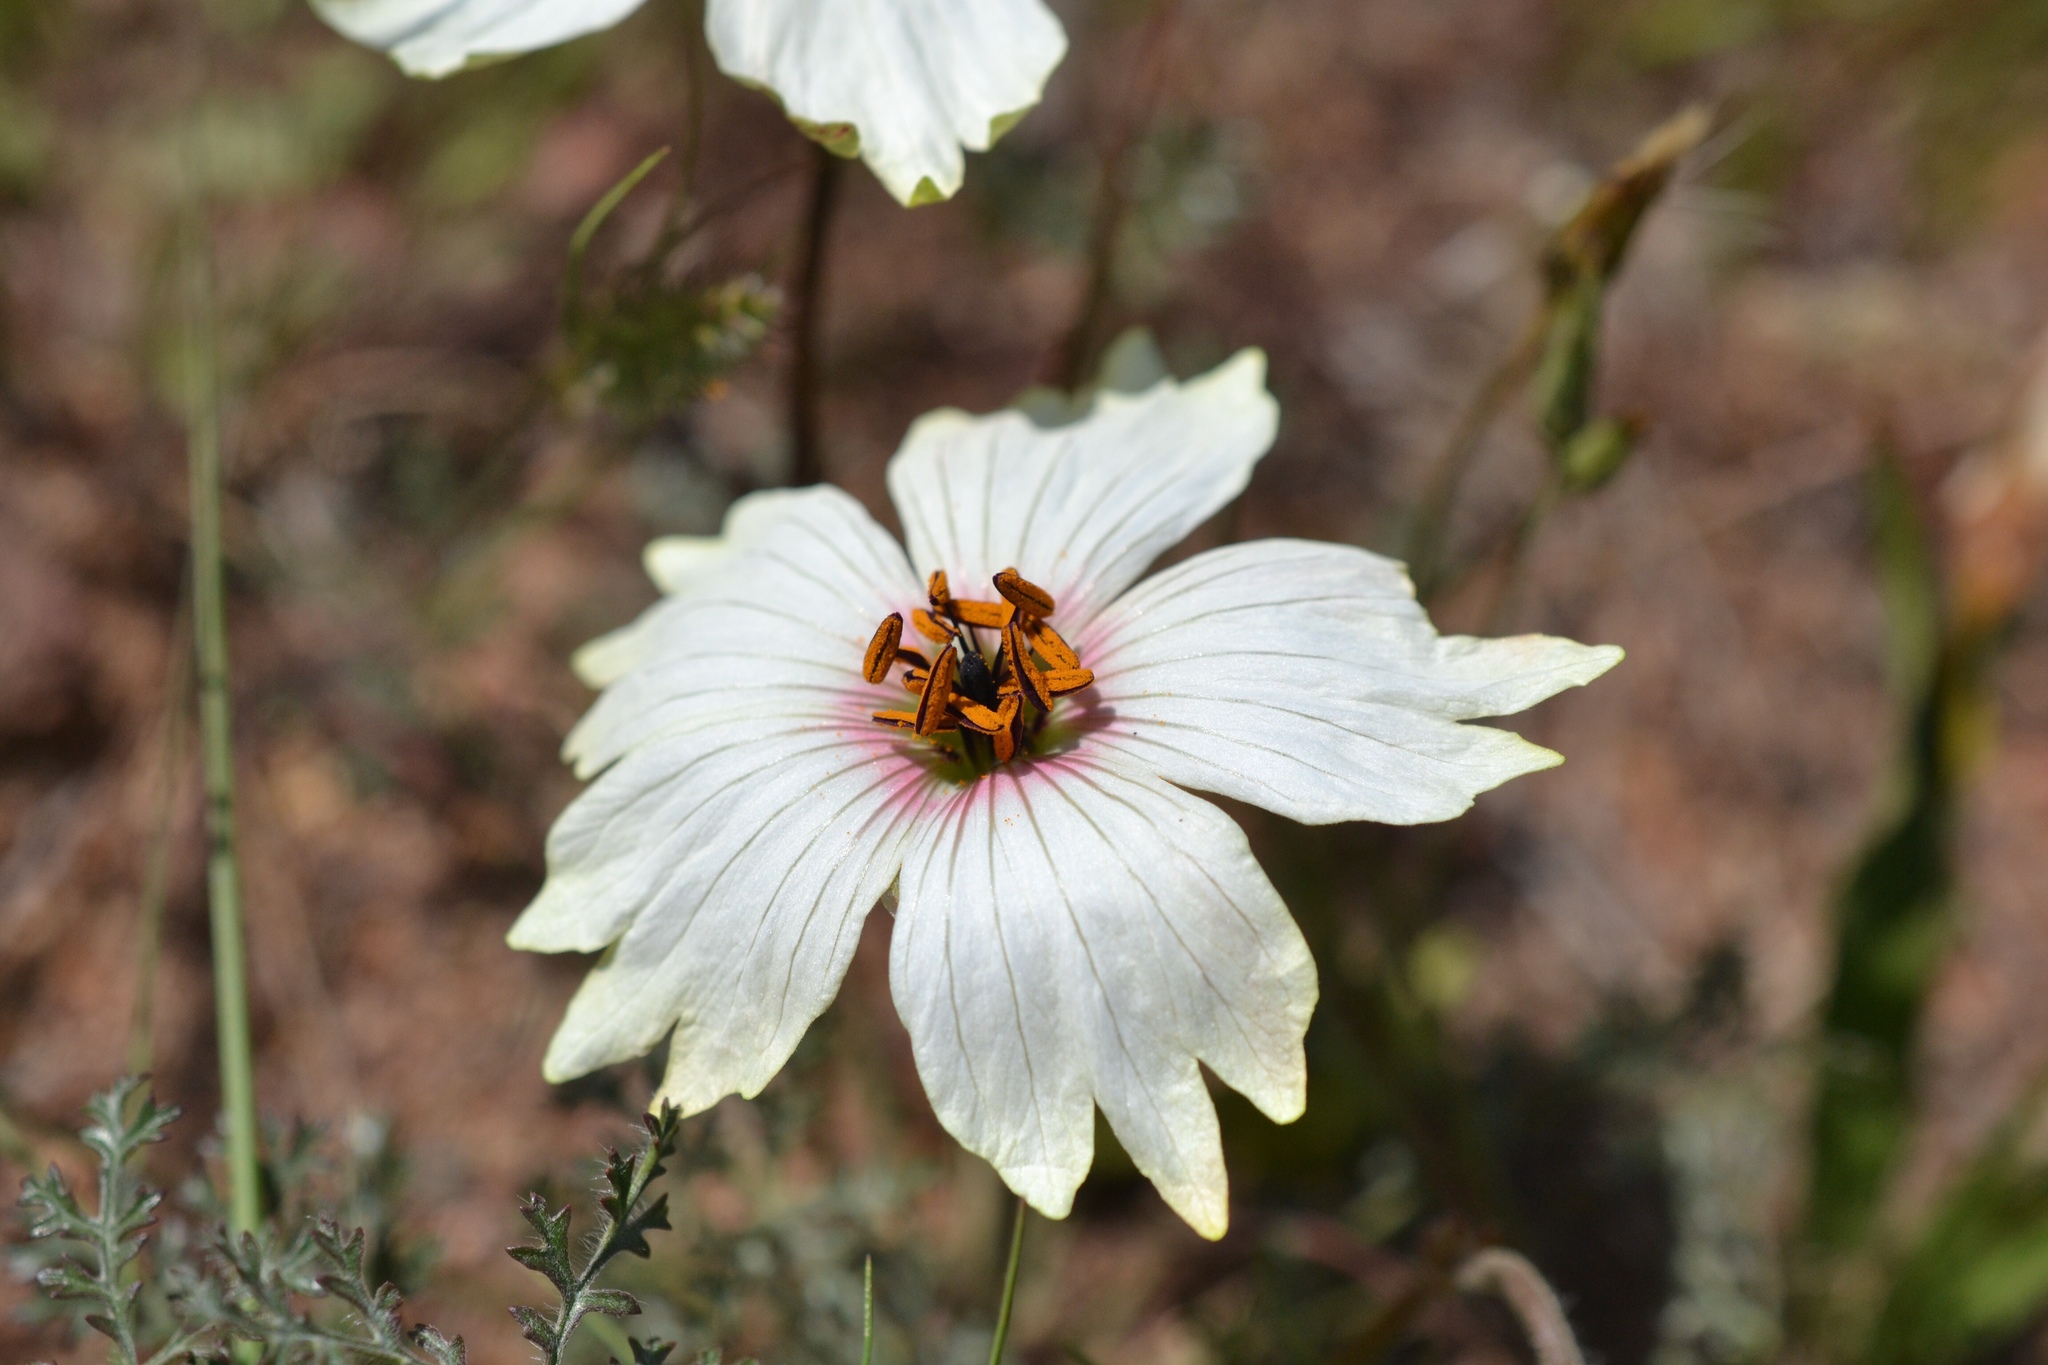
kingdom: Plantae
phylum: Tracheophyta
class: Magnoliopsida
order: Geraniales
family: Geraniaceae
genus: Monsonia
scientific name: Monsonia speciosa
